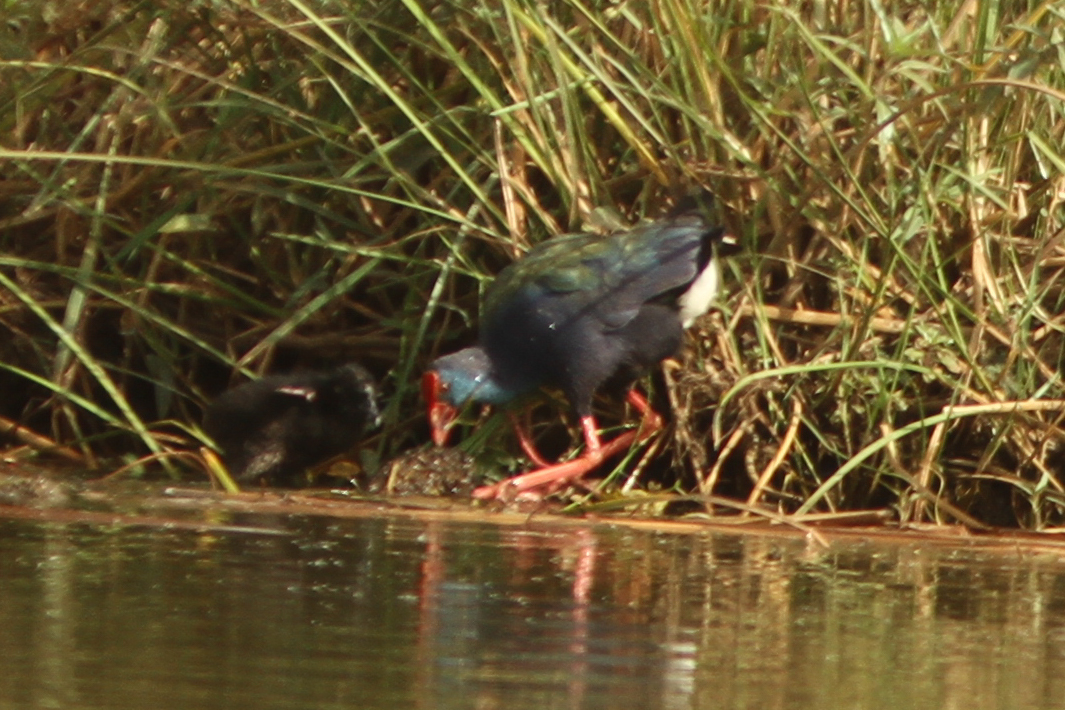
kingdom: Animalia
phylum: Chordata
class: Aves
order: Gruiformes
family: Rallidae
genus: Porphyrio
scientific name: Porphyrio porphyrio
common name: Purple swamphen
